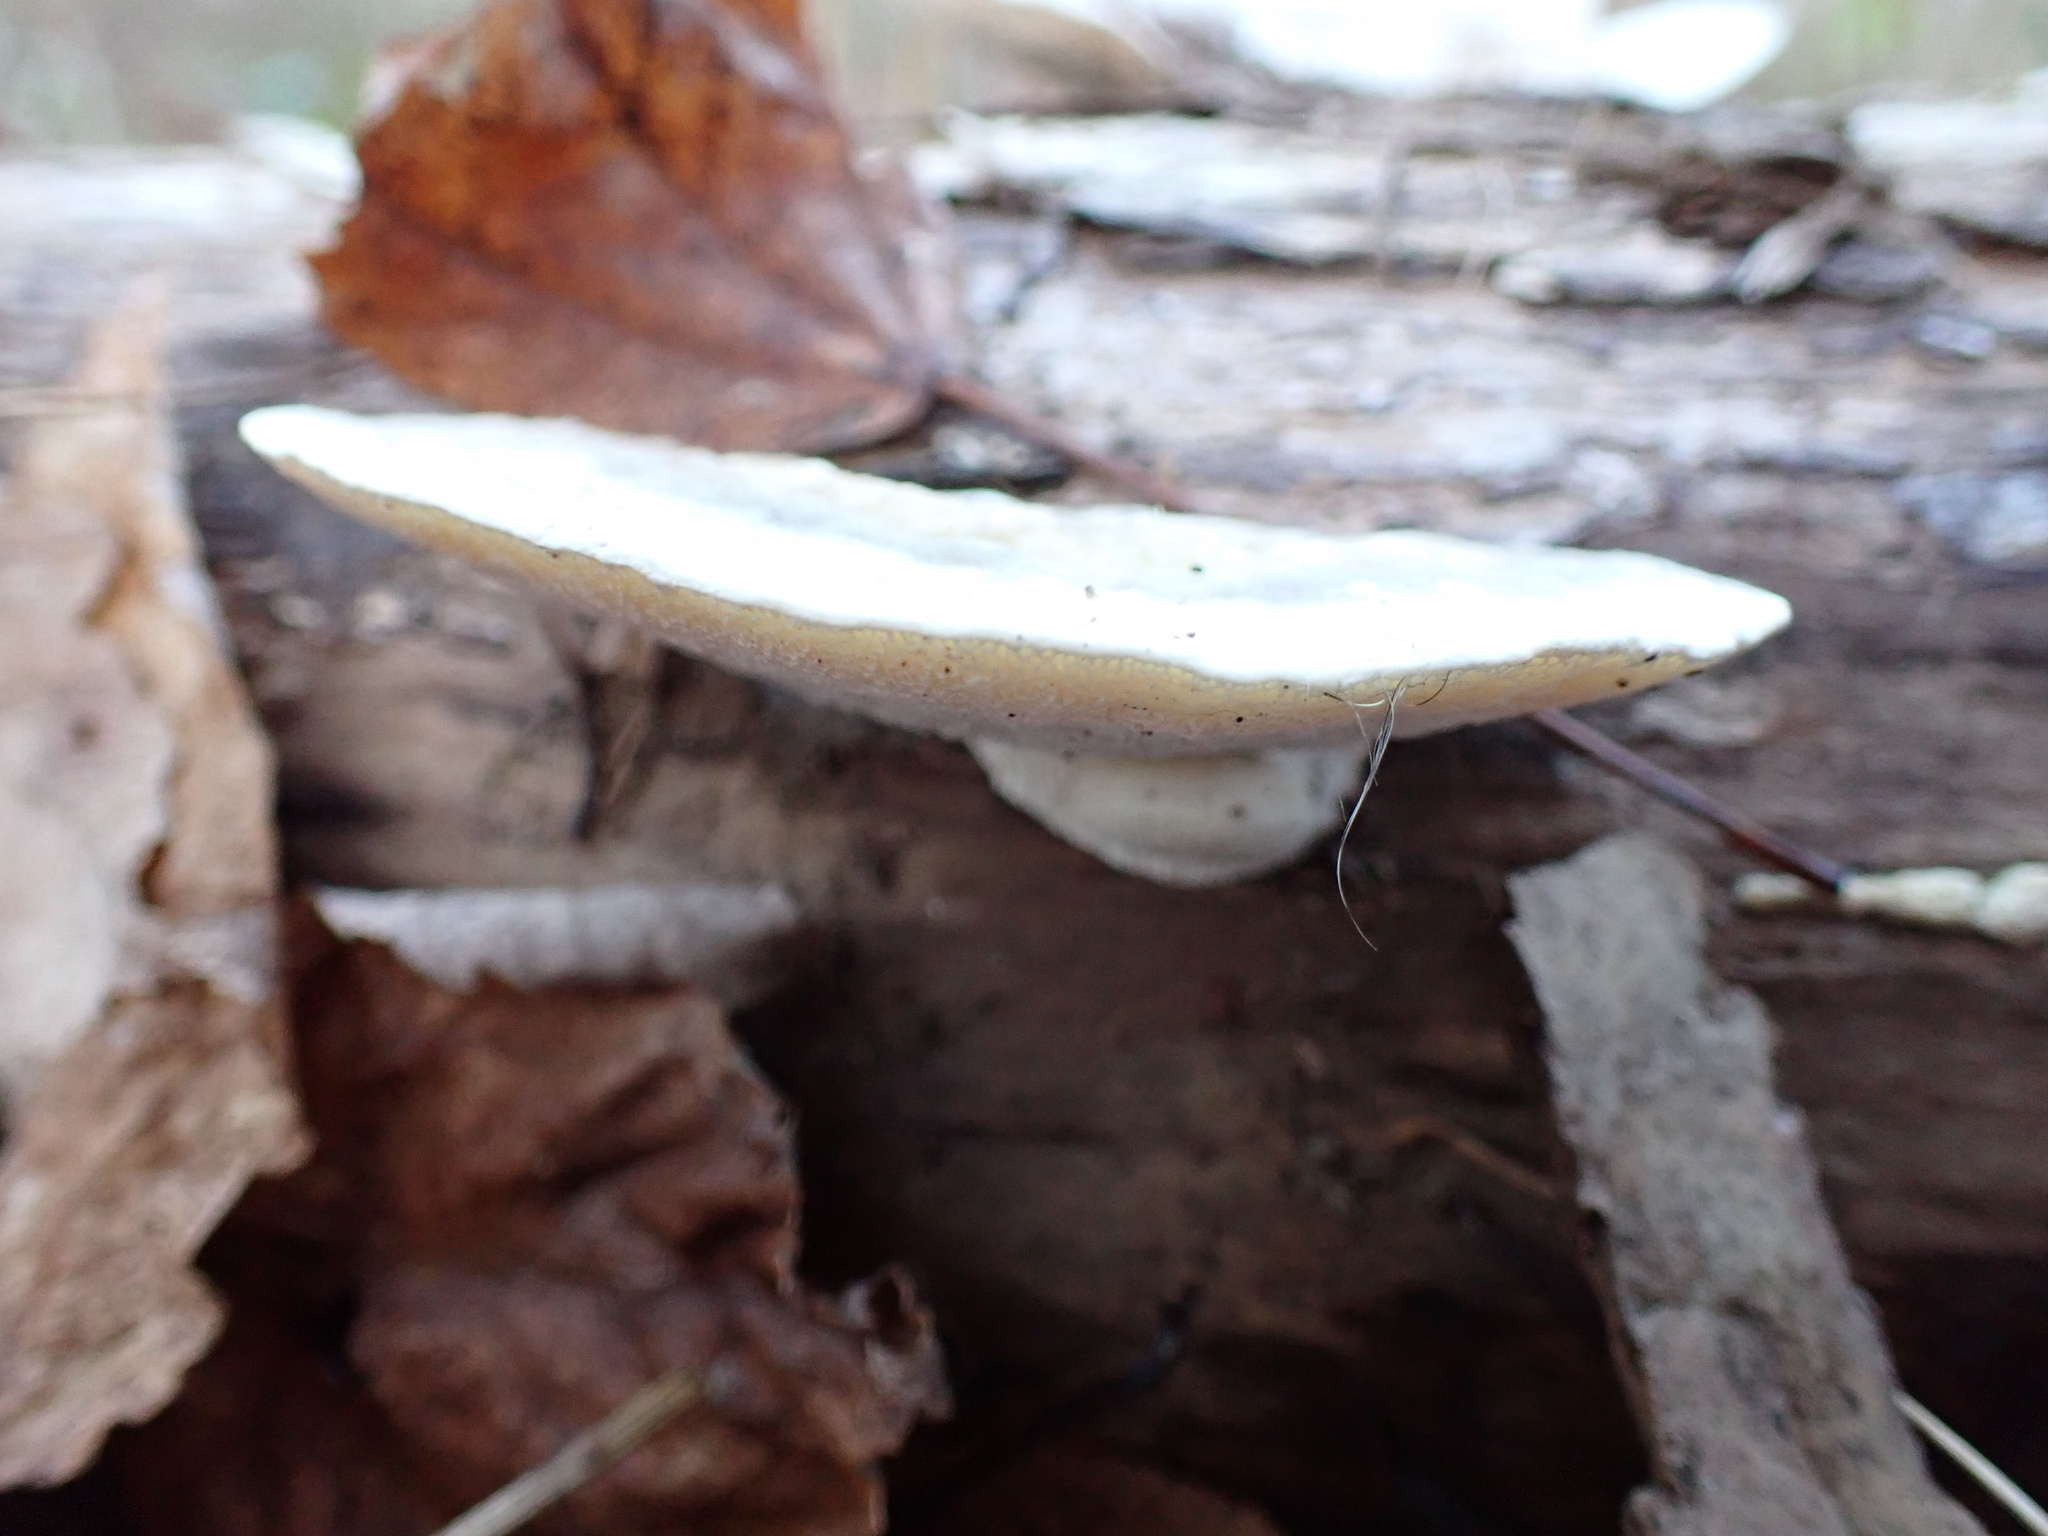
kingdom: Fungi
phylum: Basidiomycota
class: Agaricomycetes
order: Polyporales
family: Polyporaceae
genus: Trametes
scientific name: Trametes gibbosa
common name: Lumpy bracket
